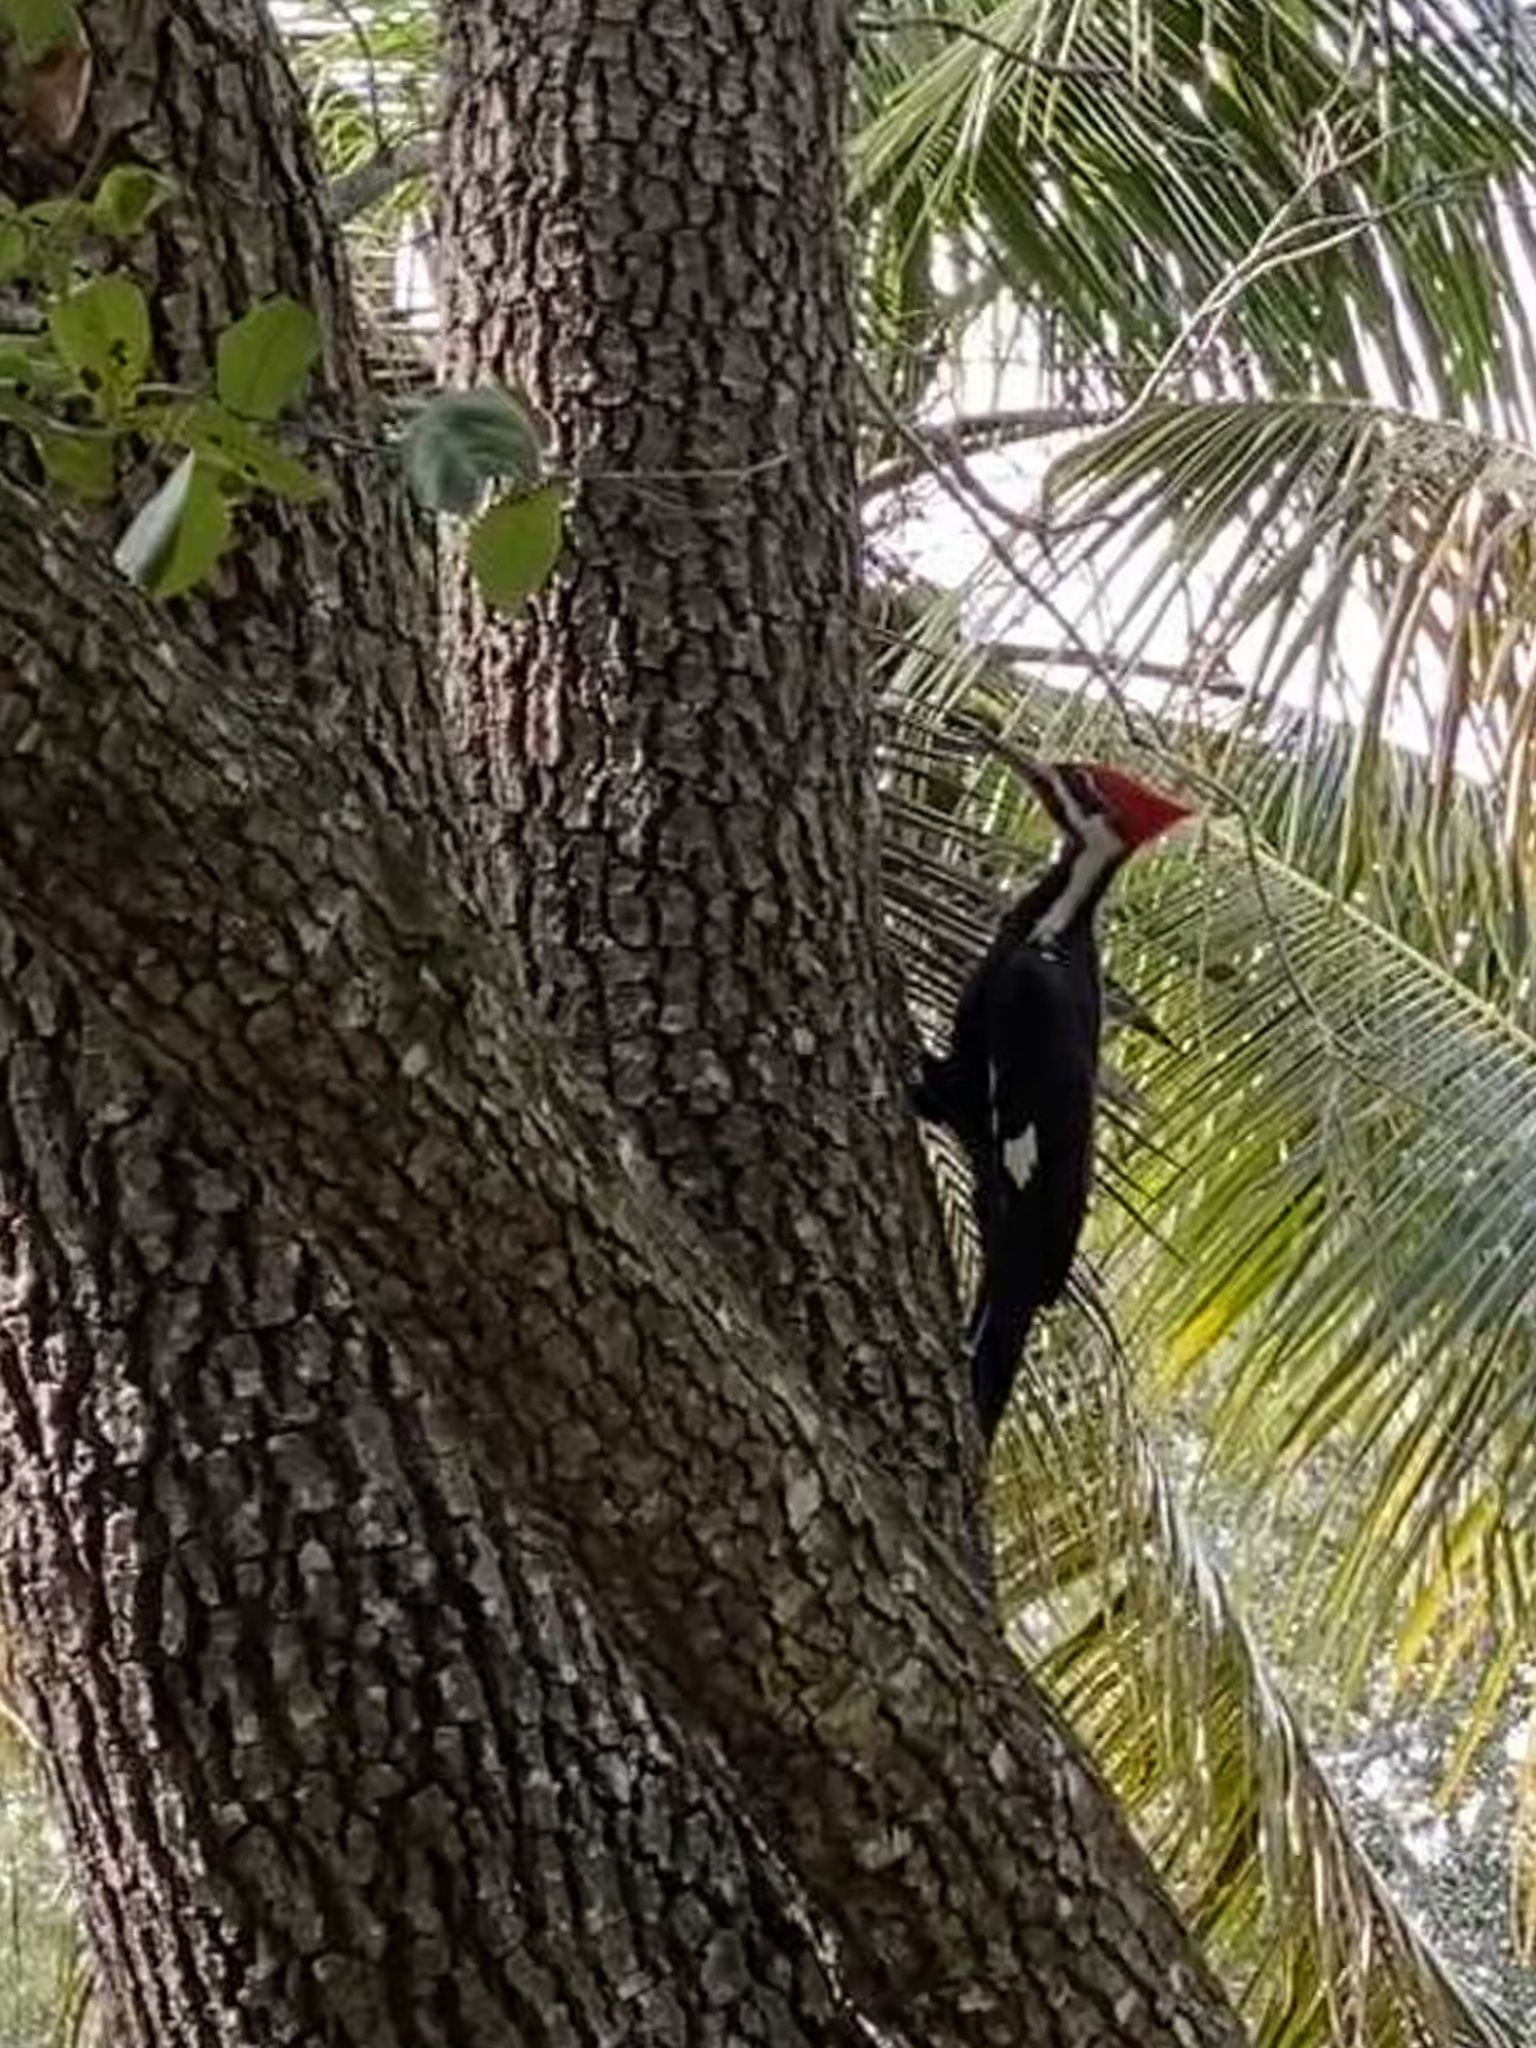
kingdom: Animalia
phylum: Chordata
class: Aves
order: Piciformes
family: Picidae
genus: Dryocopus
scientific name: Dryocopus pileatus
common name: Pileated woodpecker
